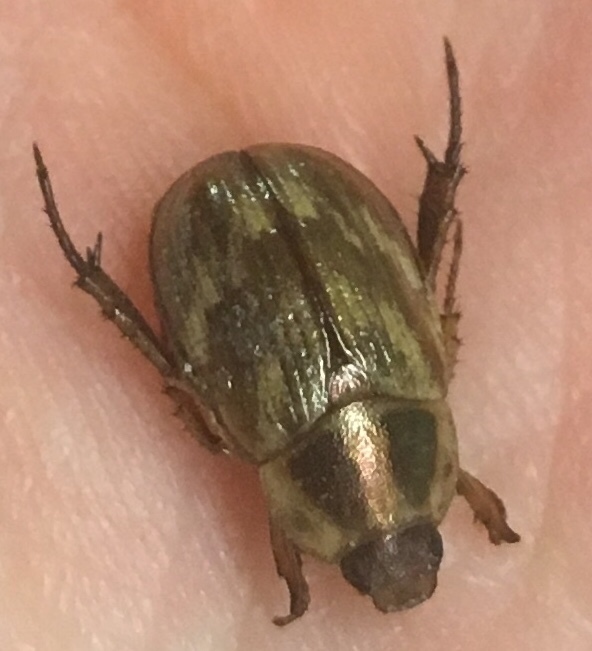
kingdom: Animalia
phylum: Arthropoda
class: Insecta
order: Coleoptera
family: Scarabaeidae
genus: Exomala
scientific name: Exomala orientalis
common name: Oriental beetle
